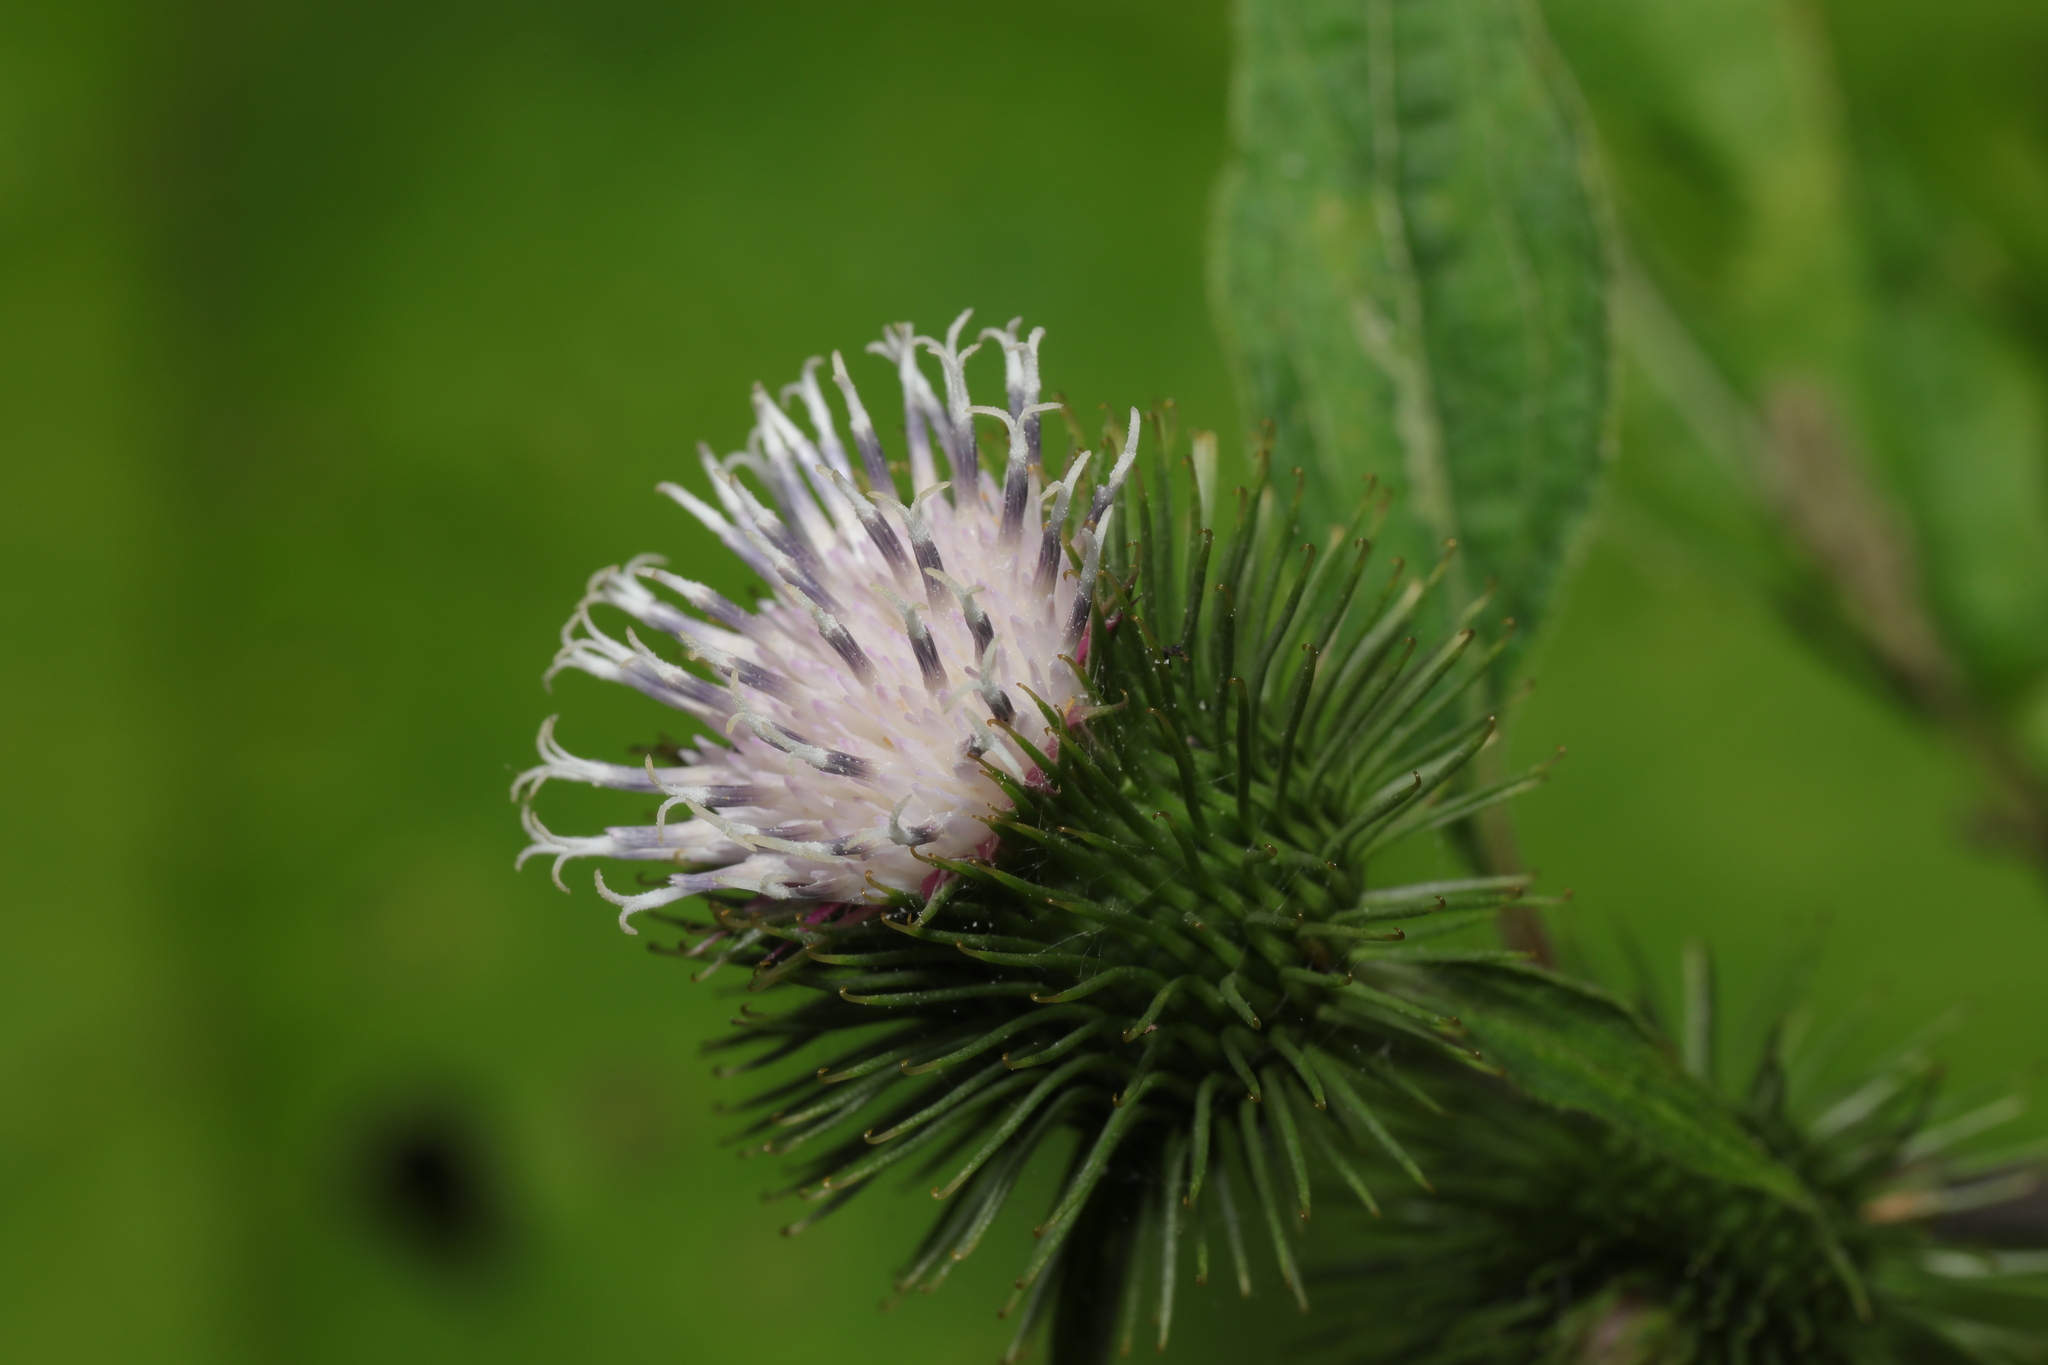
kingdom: Plantae
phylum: Tracheophyta
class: Magnoliopsida
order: Asterales
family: Asteraceae
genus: Arctium
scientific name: Arctium minus
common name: Lesser burdock
